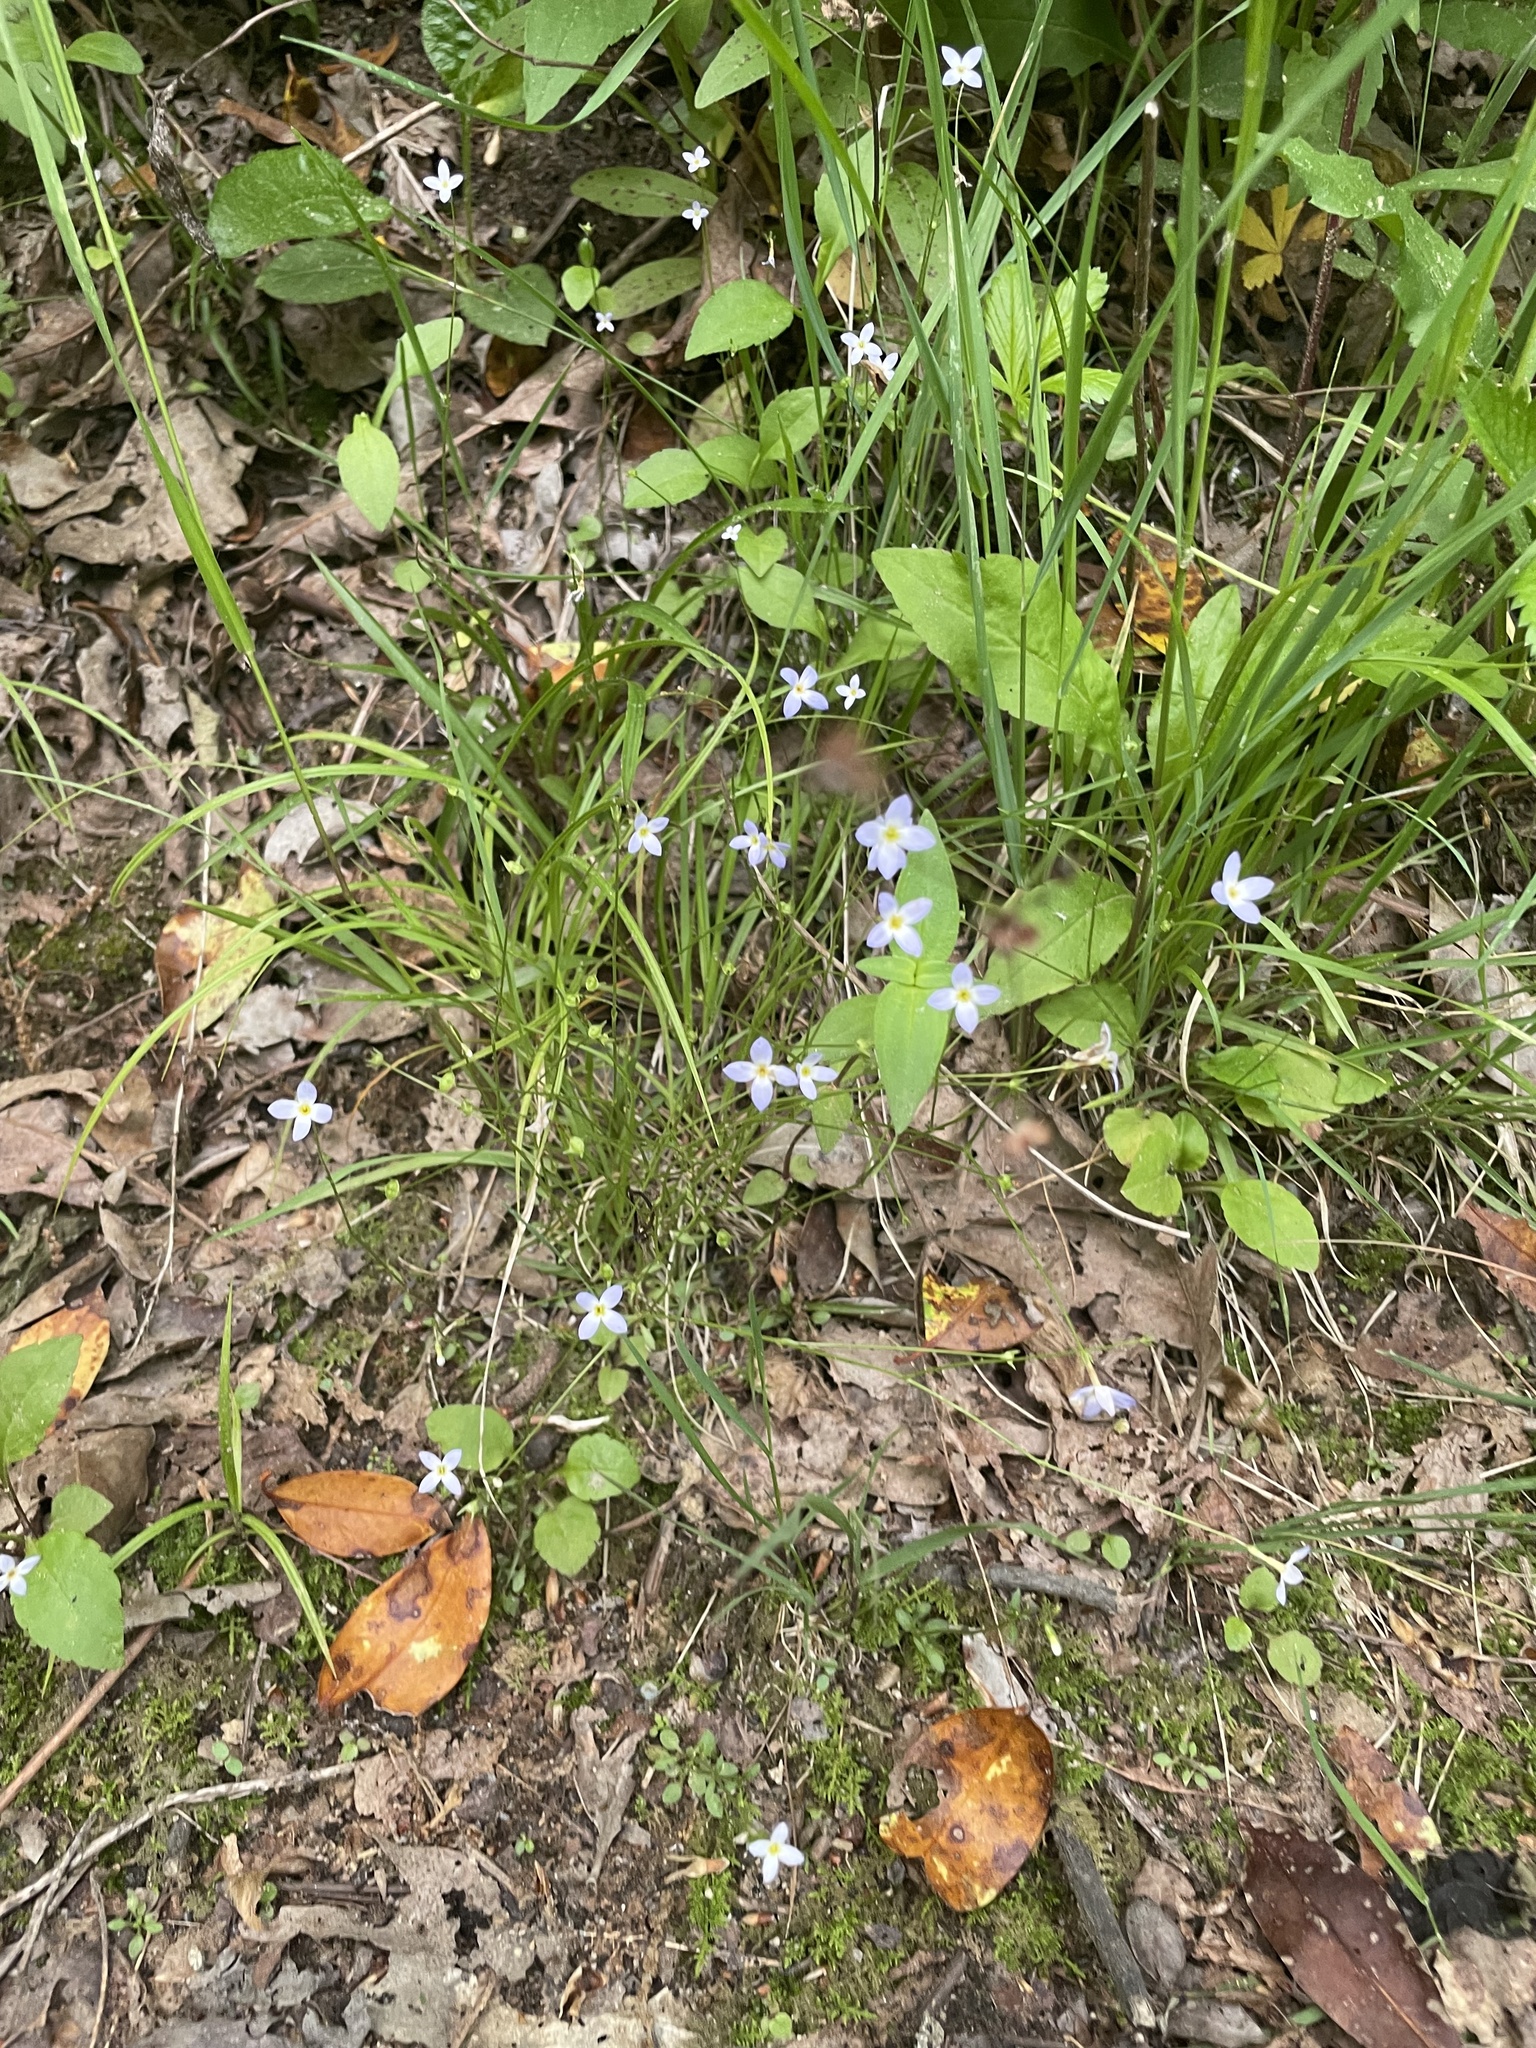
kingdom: Plantae
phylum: Tracheophyta
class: Magnoliopsida
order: Gentianales
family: Rubiaceae
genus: Houstonia
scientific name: Houstonia caerulea
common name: Bluets
